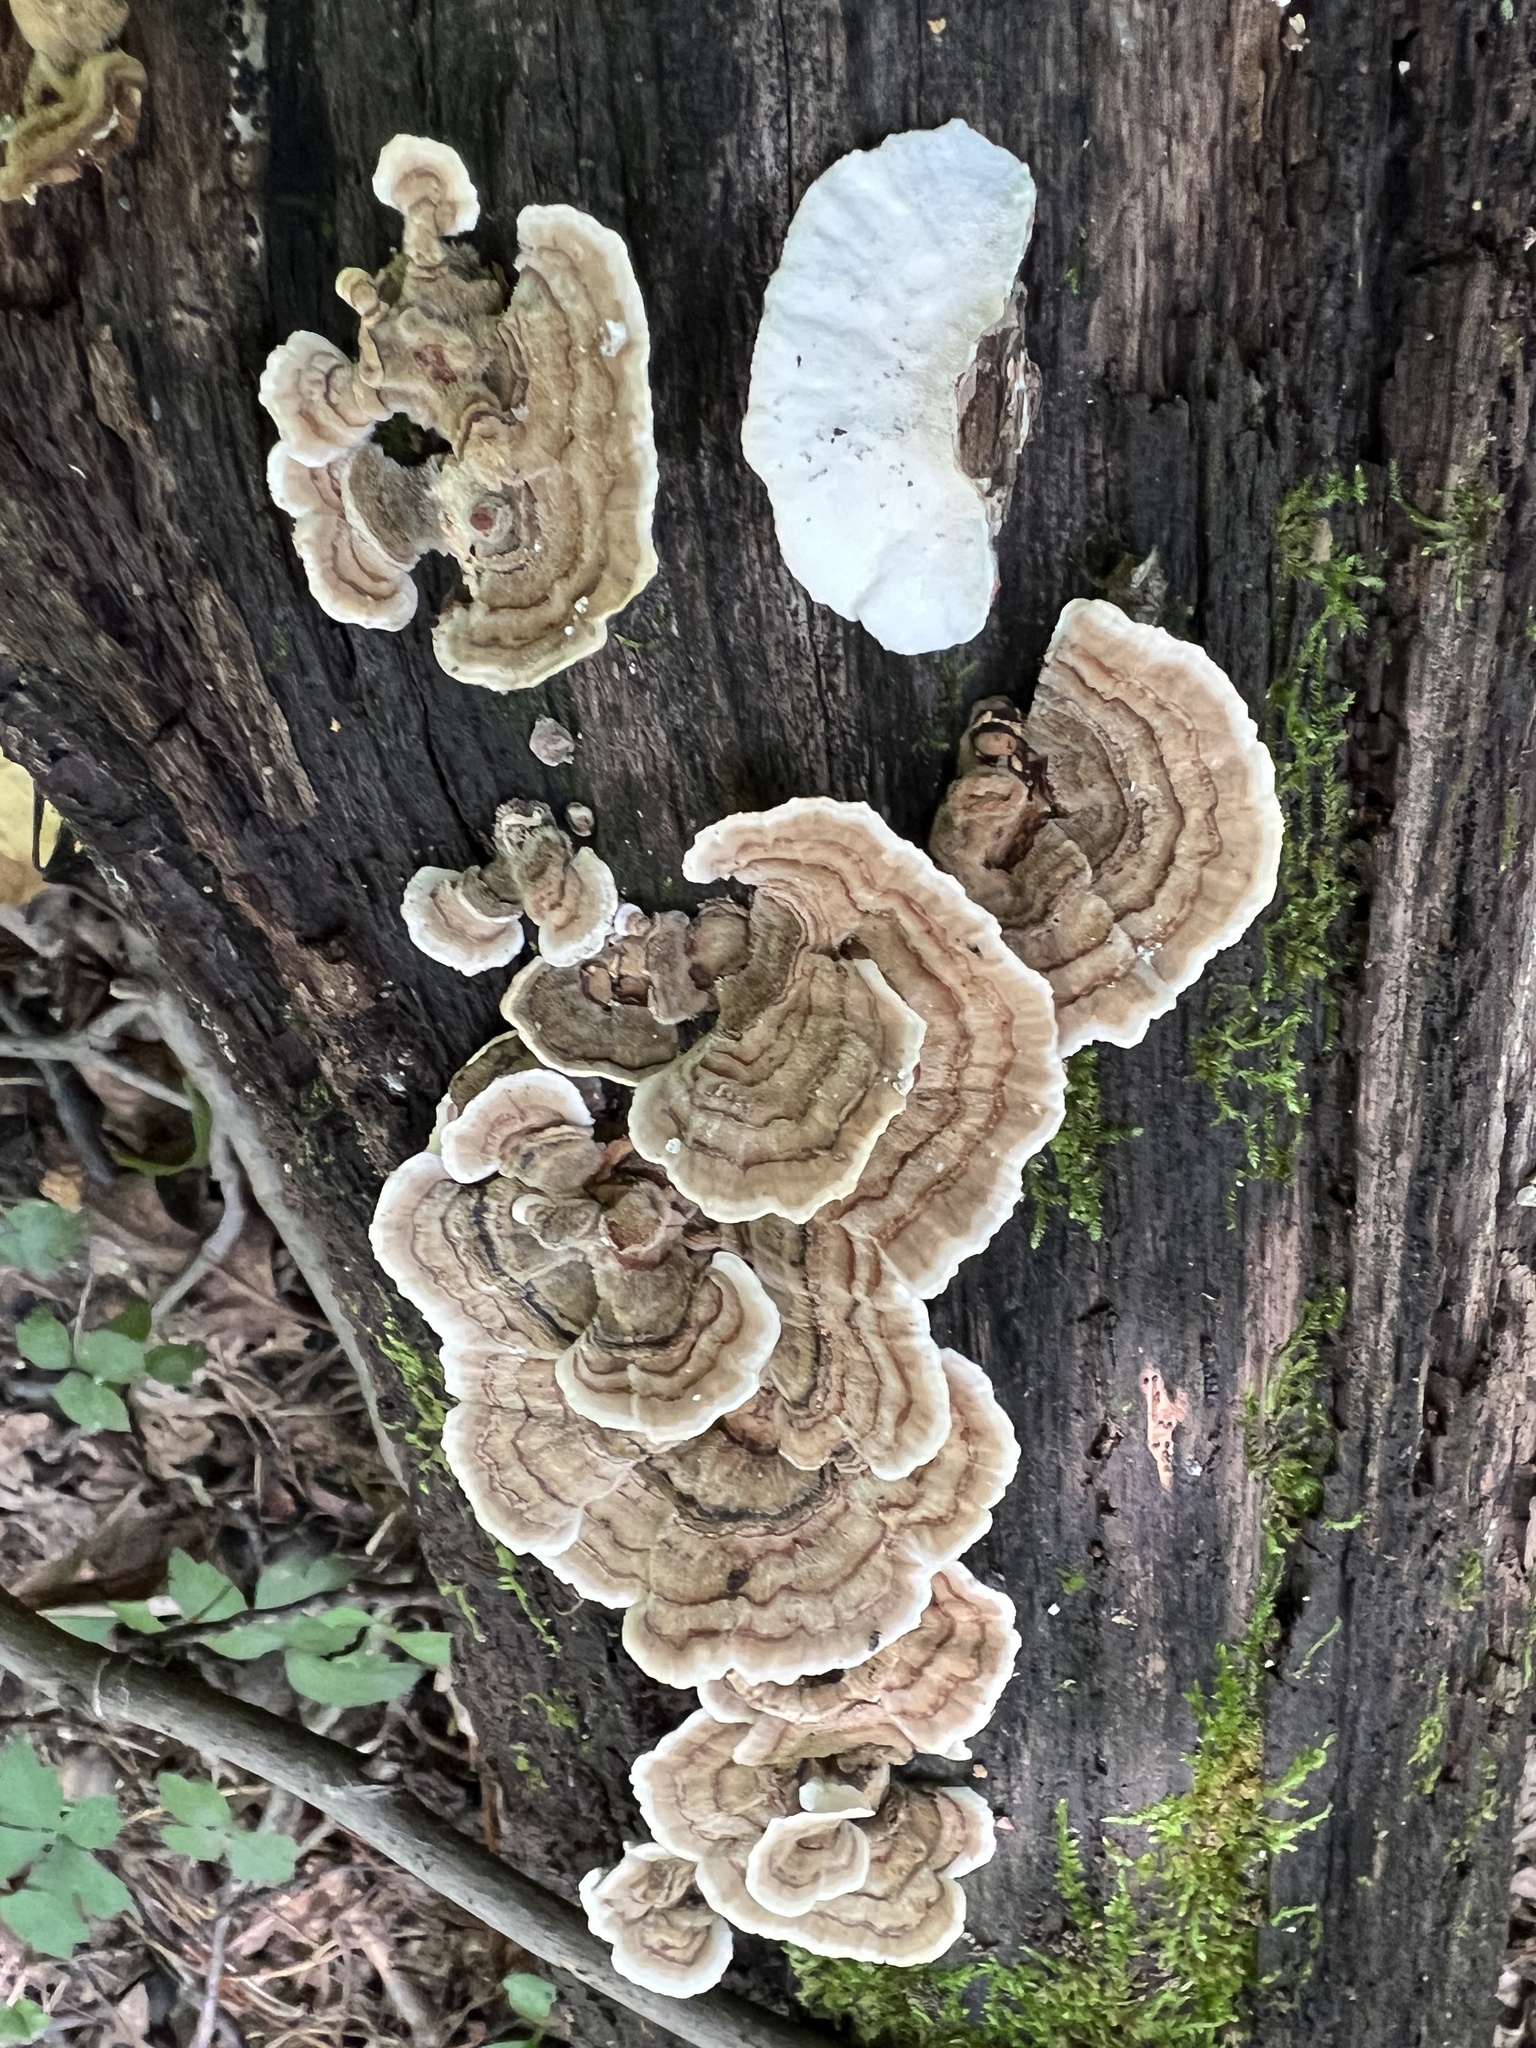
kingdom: Fungi
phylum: Basidiomycota
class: Agaricomycetes
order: Polyporales
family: Polyporaceae
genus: Trametes
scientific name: Trametes versicolor
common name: Turkeytail
